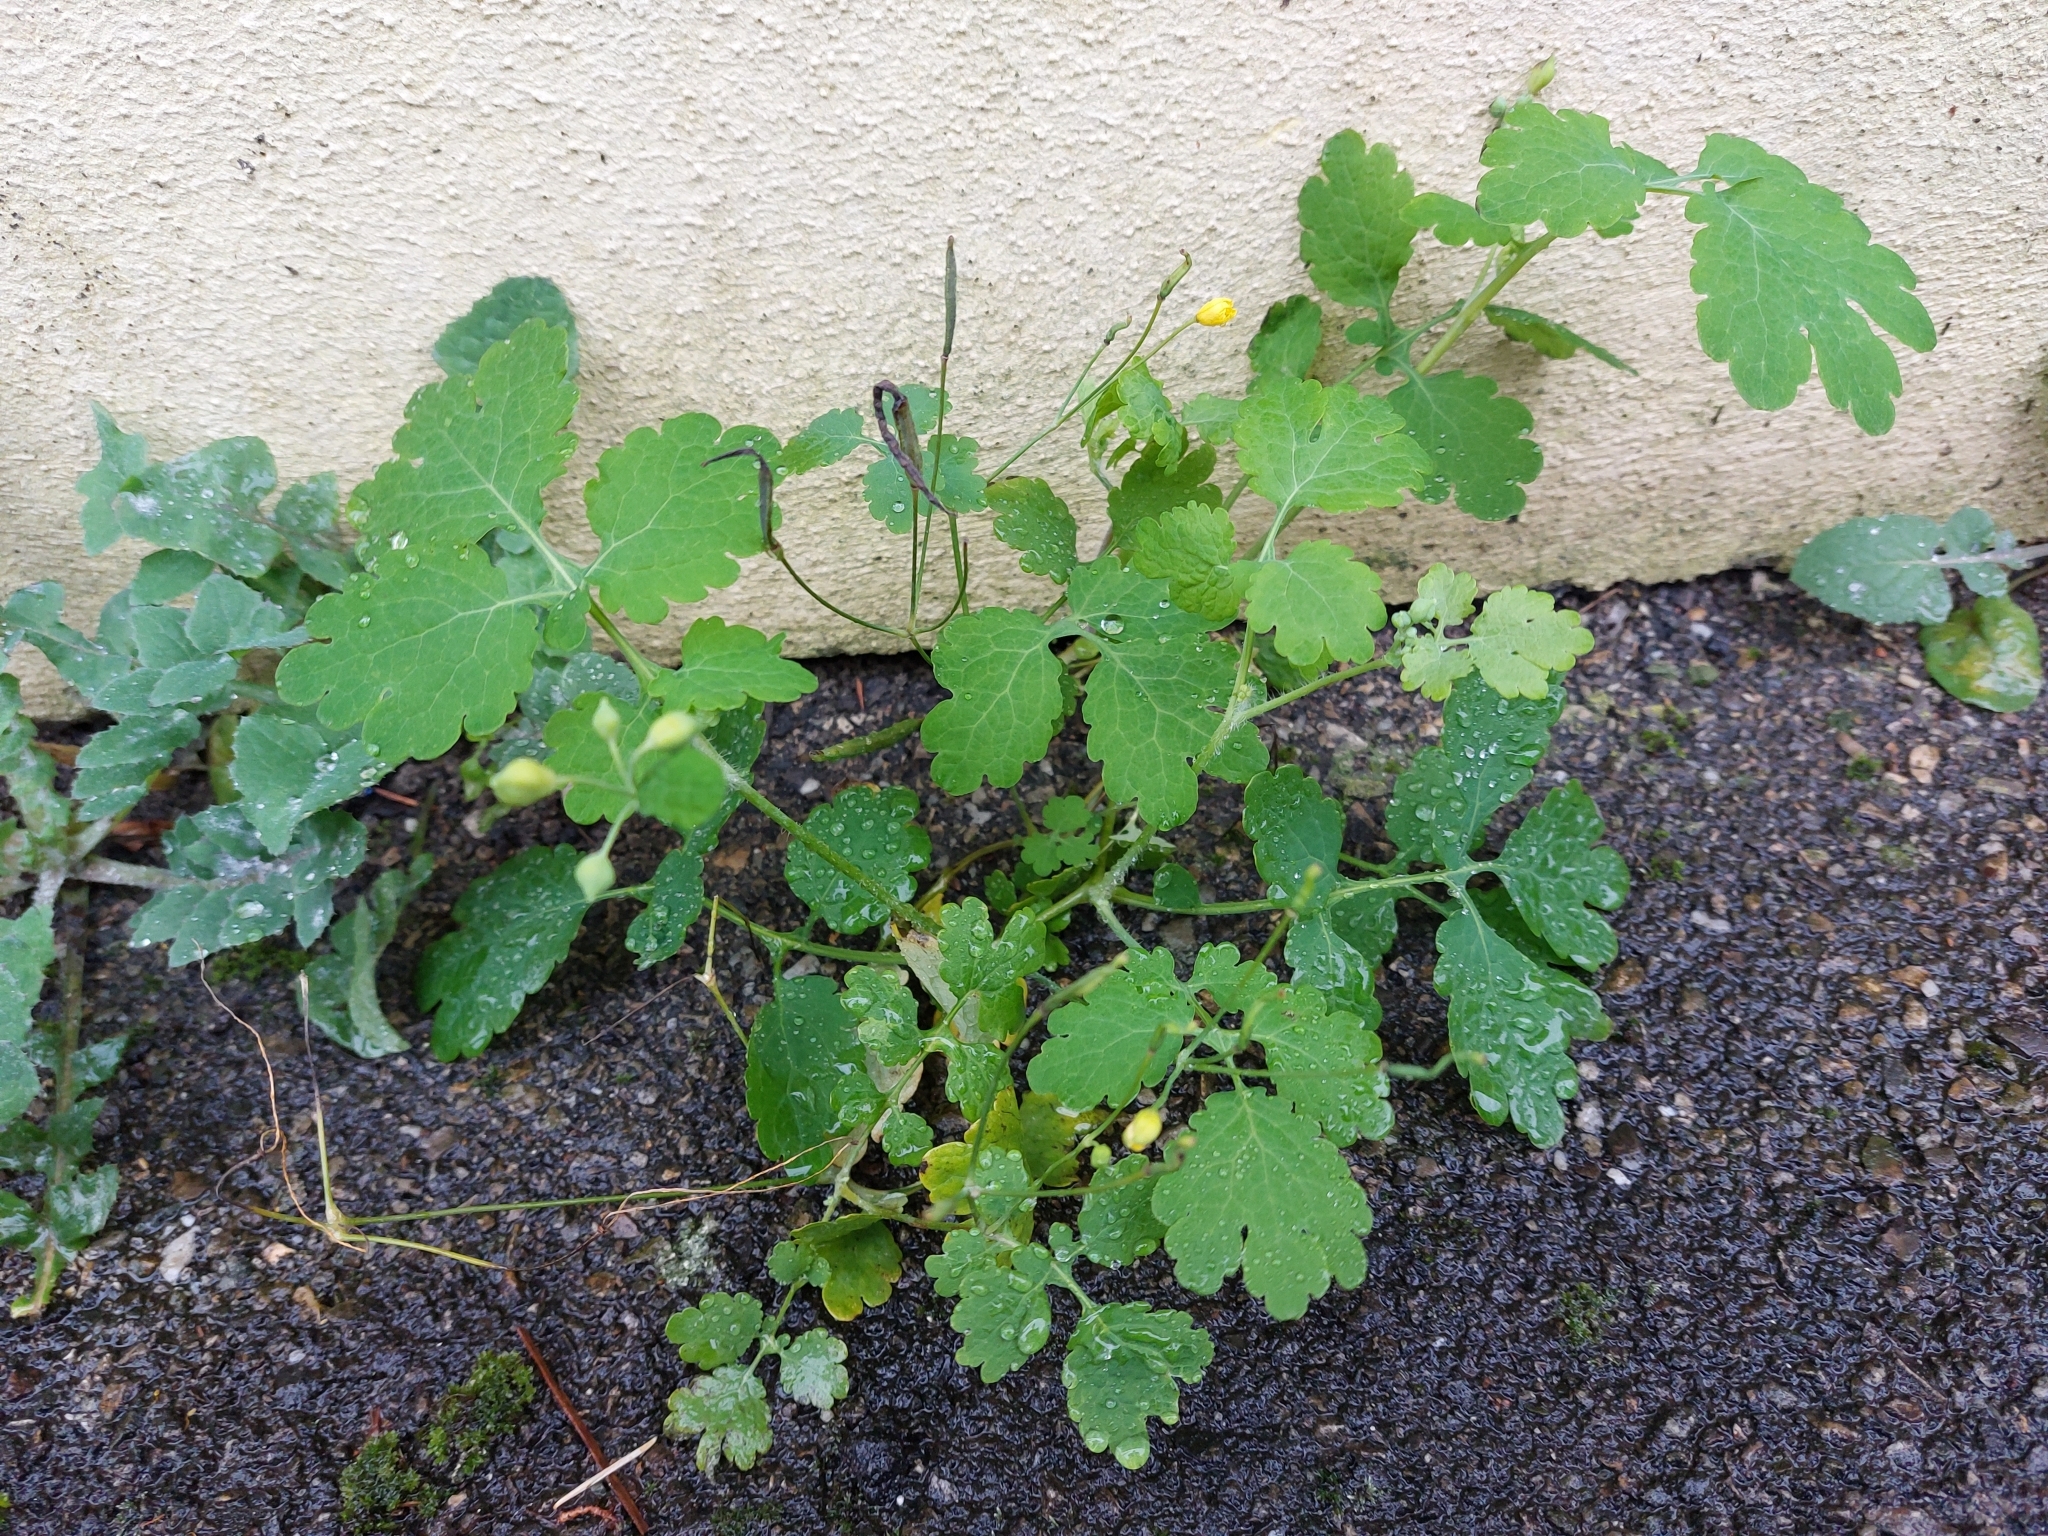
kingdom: Plantae
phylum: Tracheophyta
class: Magnoliopsida
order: Ranunculales
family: Papaveraceae
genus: Chelidonium
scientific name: Chelidonium majus
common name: Greater celandine
